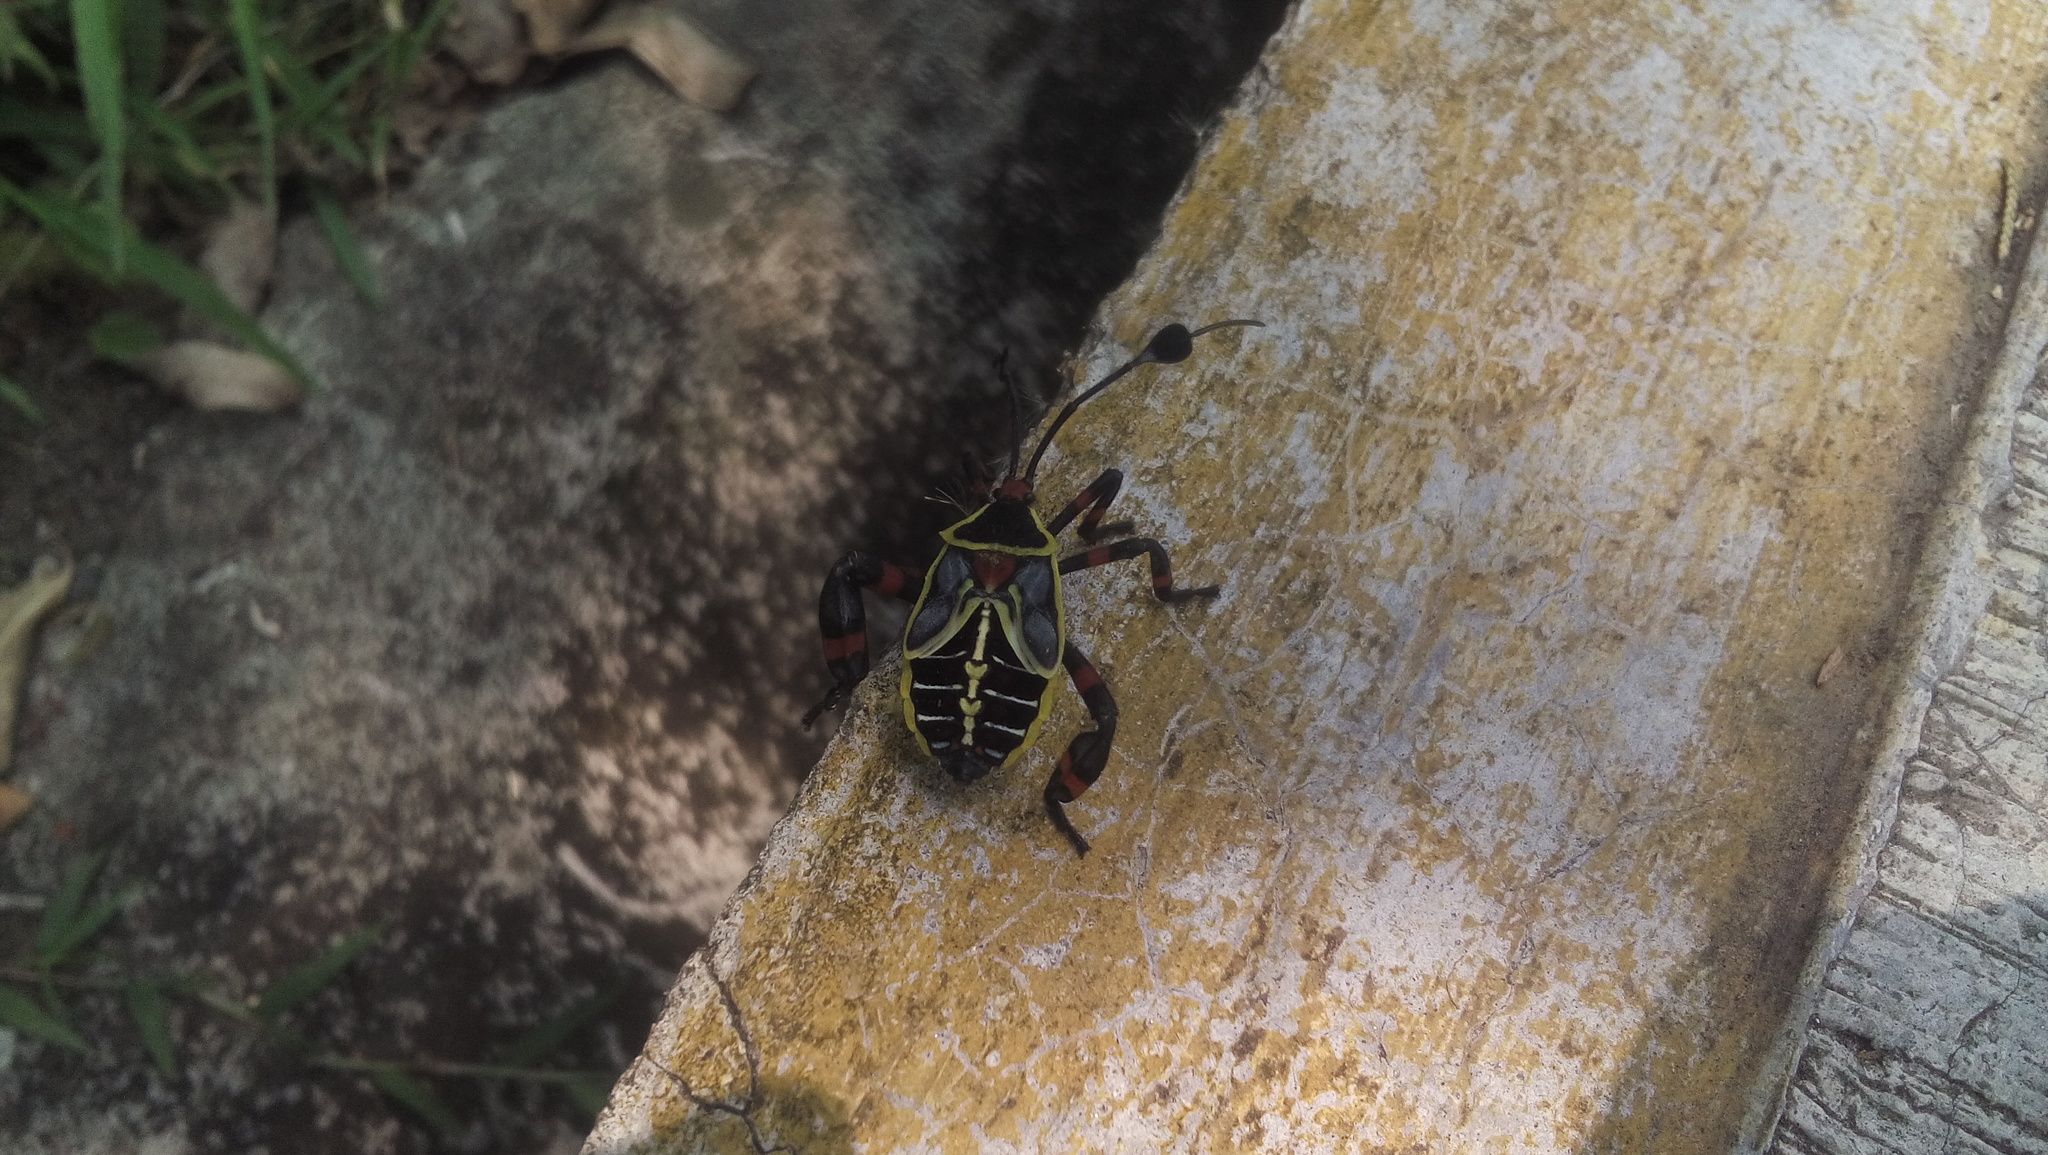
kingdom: Animalia
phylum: Arthropoda
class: Insecta
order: Hemiptera
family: Coreidae
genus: Thasus
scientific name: Thasus acutangulus
